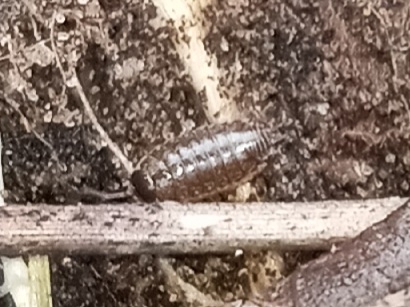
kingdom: Animalia
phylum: Arthropoda
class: Malacostraca
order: Isopoda
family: Philosciidae
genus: Philoscia
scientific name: Philoscia muscorum
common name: Common striped woodlouse
